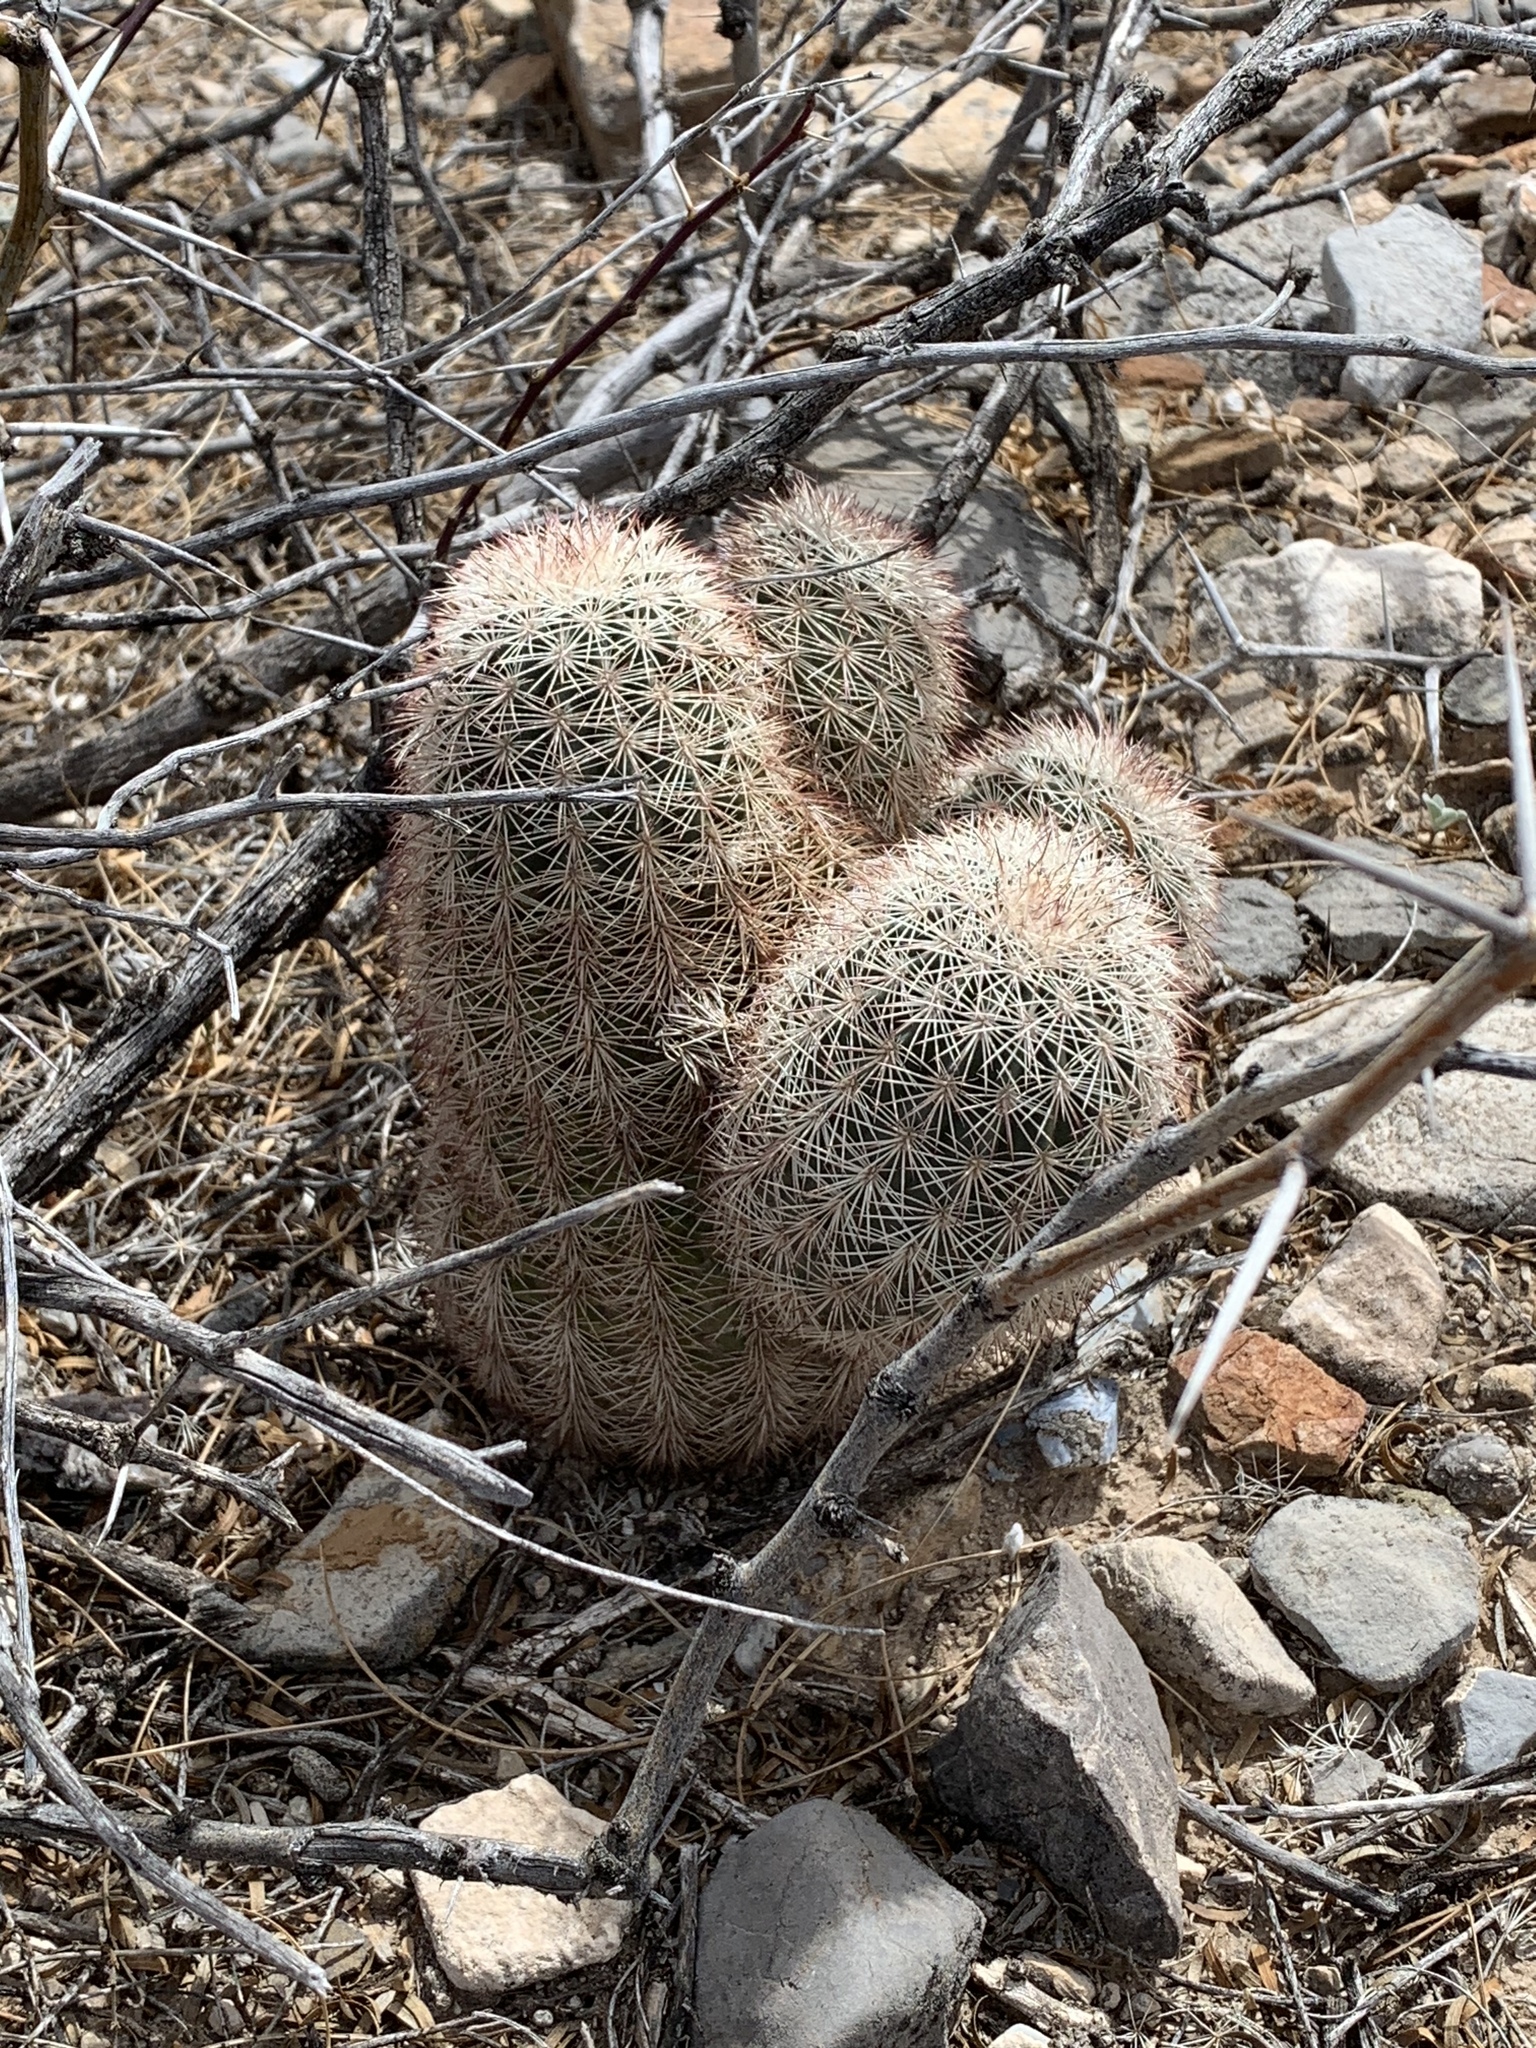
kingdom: Plantae
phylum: Tracheophyta
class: Magnoliopsida
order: Caryophyllales
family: Cactaceae
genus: Echinocereus
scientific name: Echinocereus dasyacanthus
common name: Spiny hedgehog cactus
